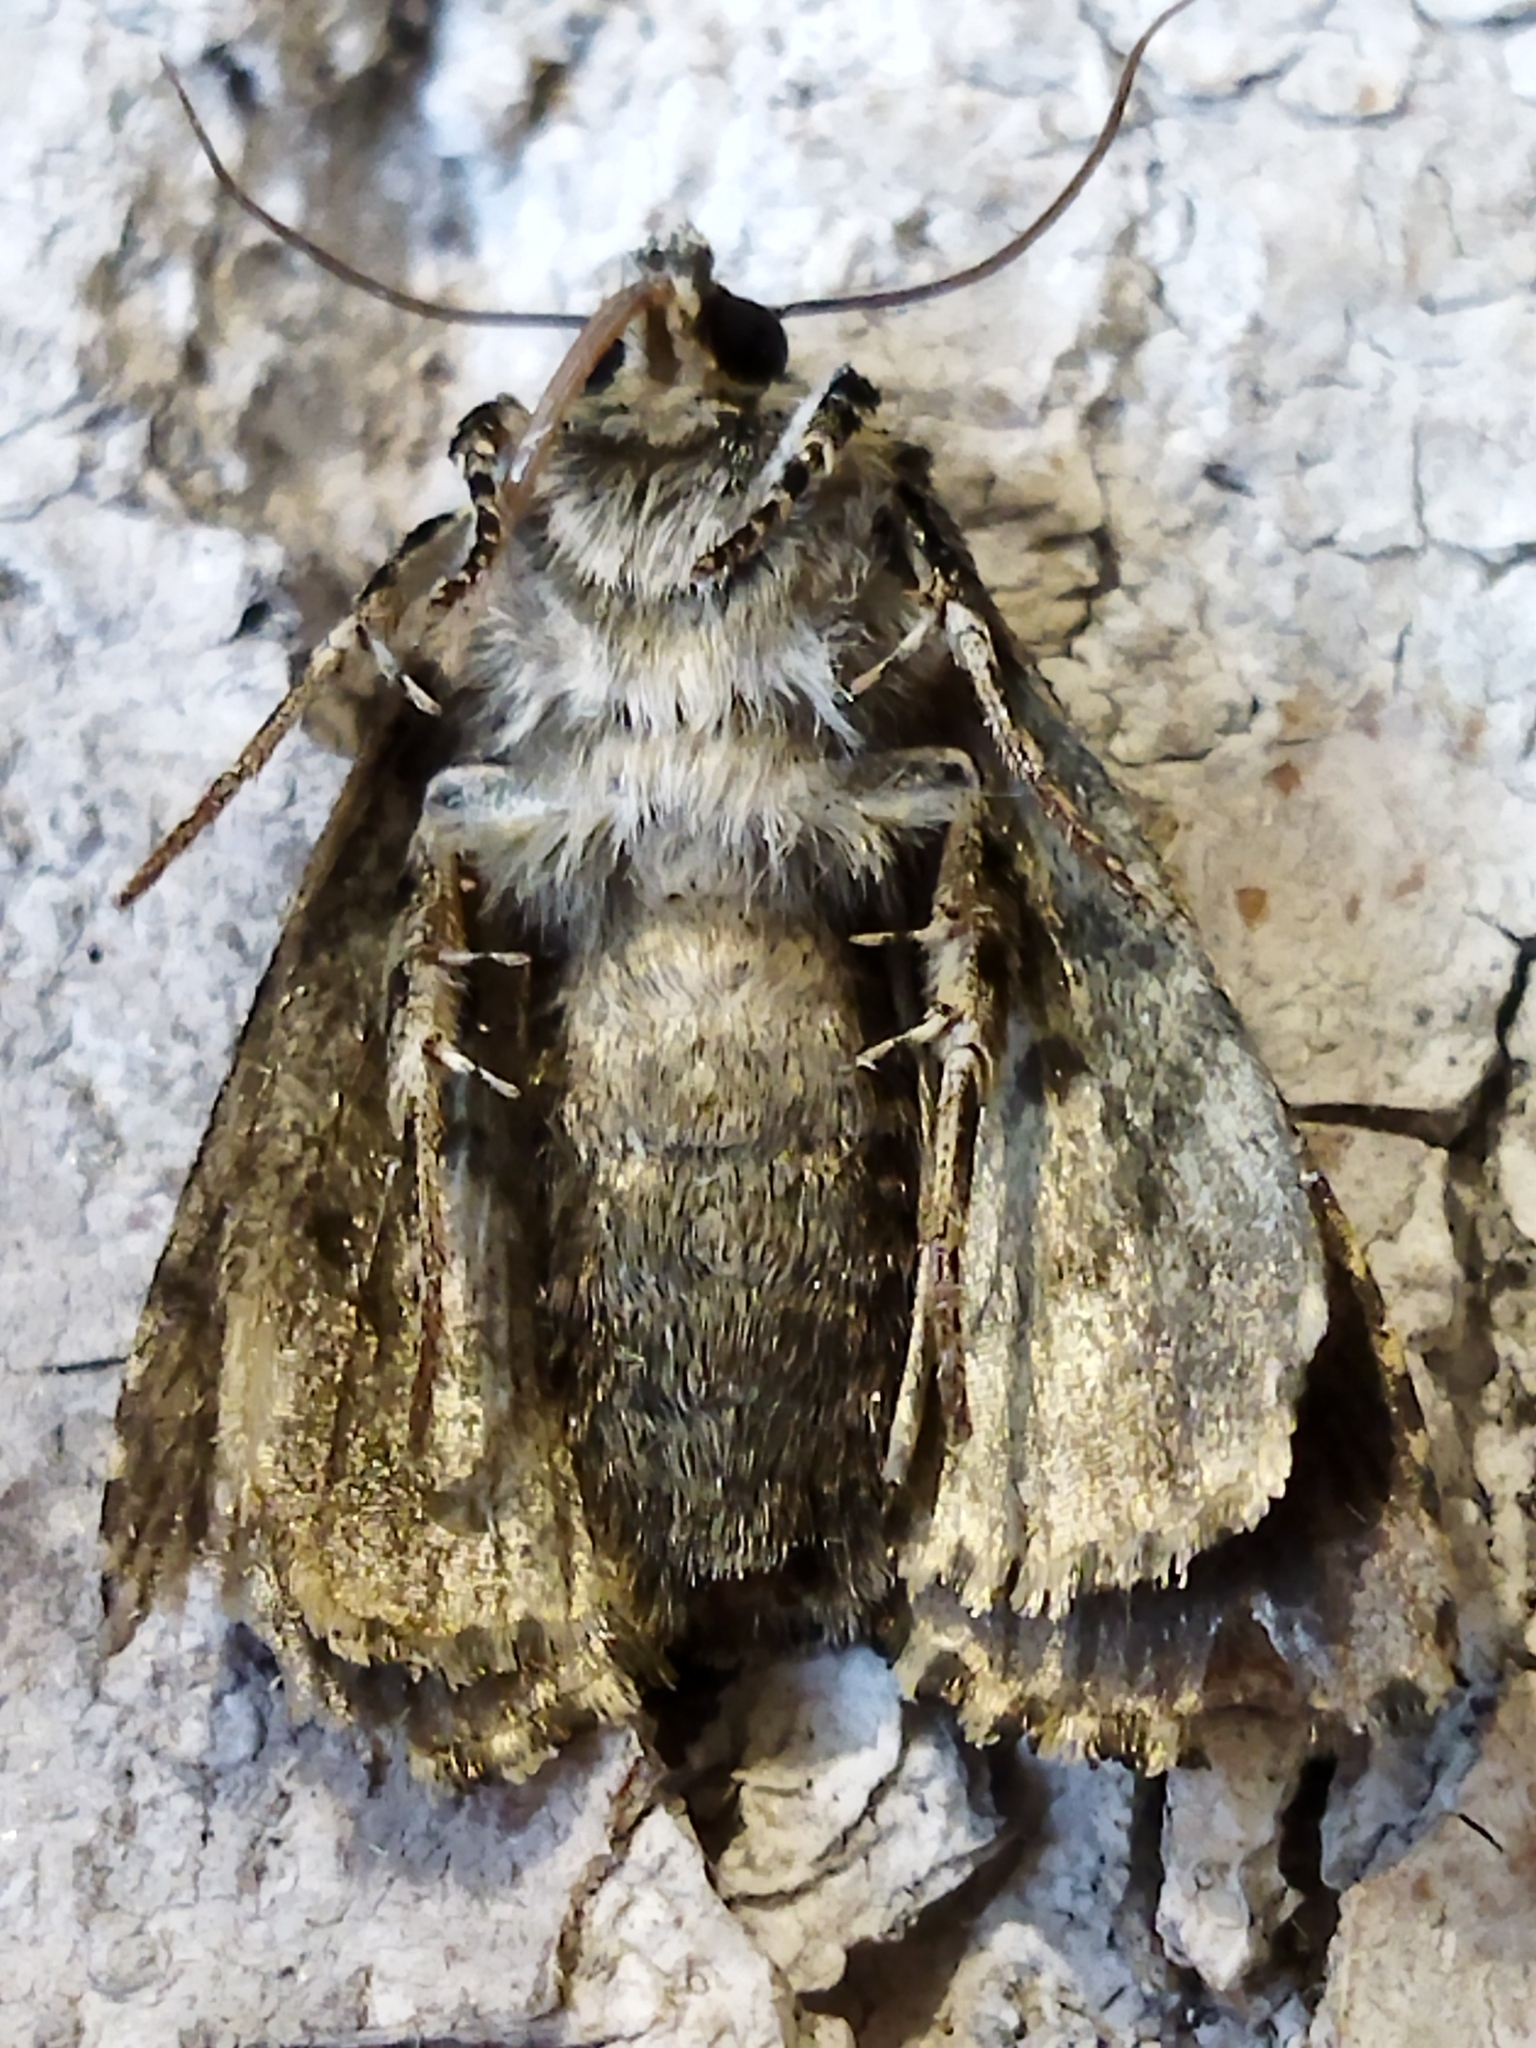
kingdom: Animalia
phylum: Arthropoda
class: Insecta
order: Lepidoptera
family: Noctuidae
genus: Craniophora
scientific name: Craniophora ligustri
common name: Coronet
